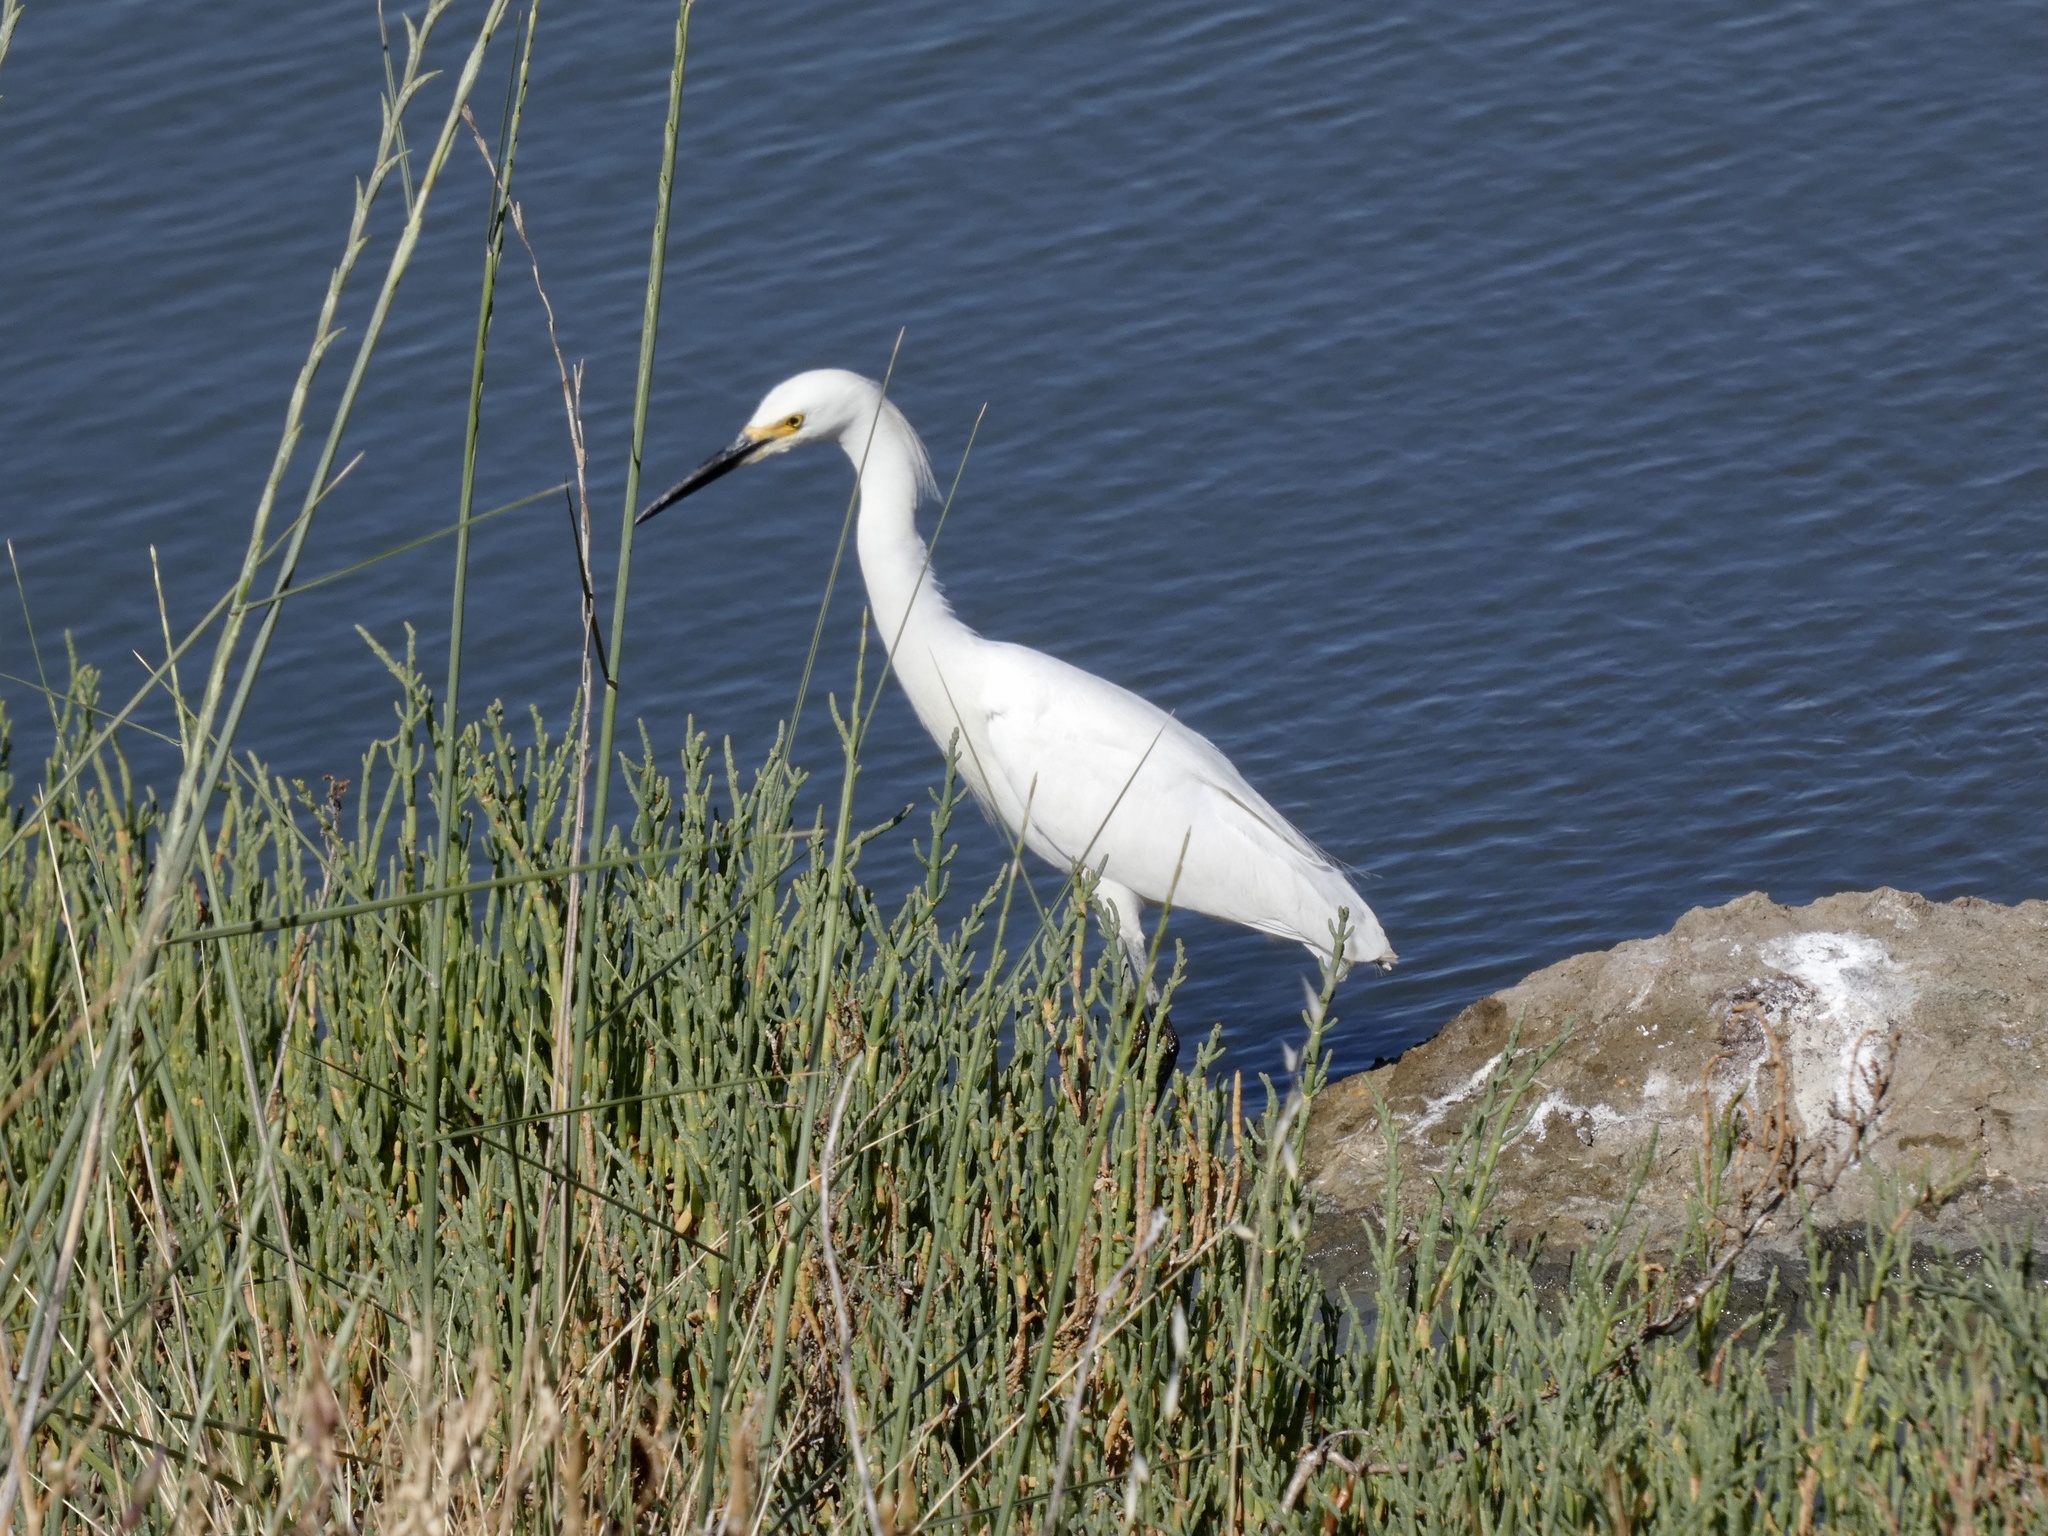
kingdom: Animalia
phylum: Chordata
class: Aves
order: Pelecaniformes
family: Ardeidae
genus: Egretta
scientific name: Egretta thula
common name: Snowy egret
